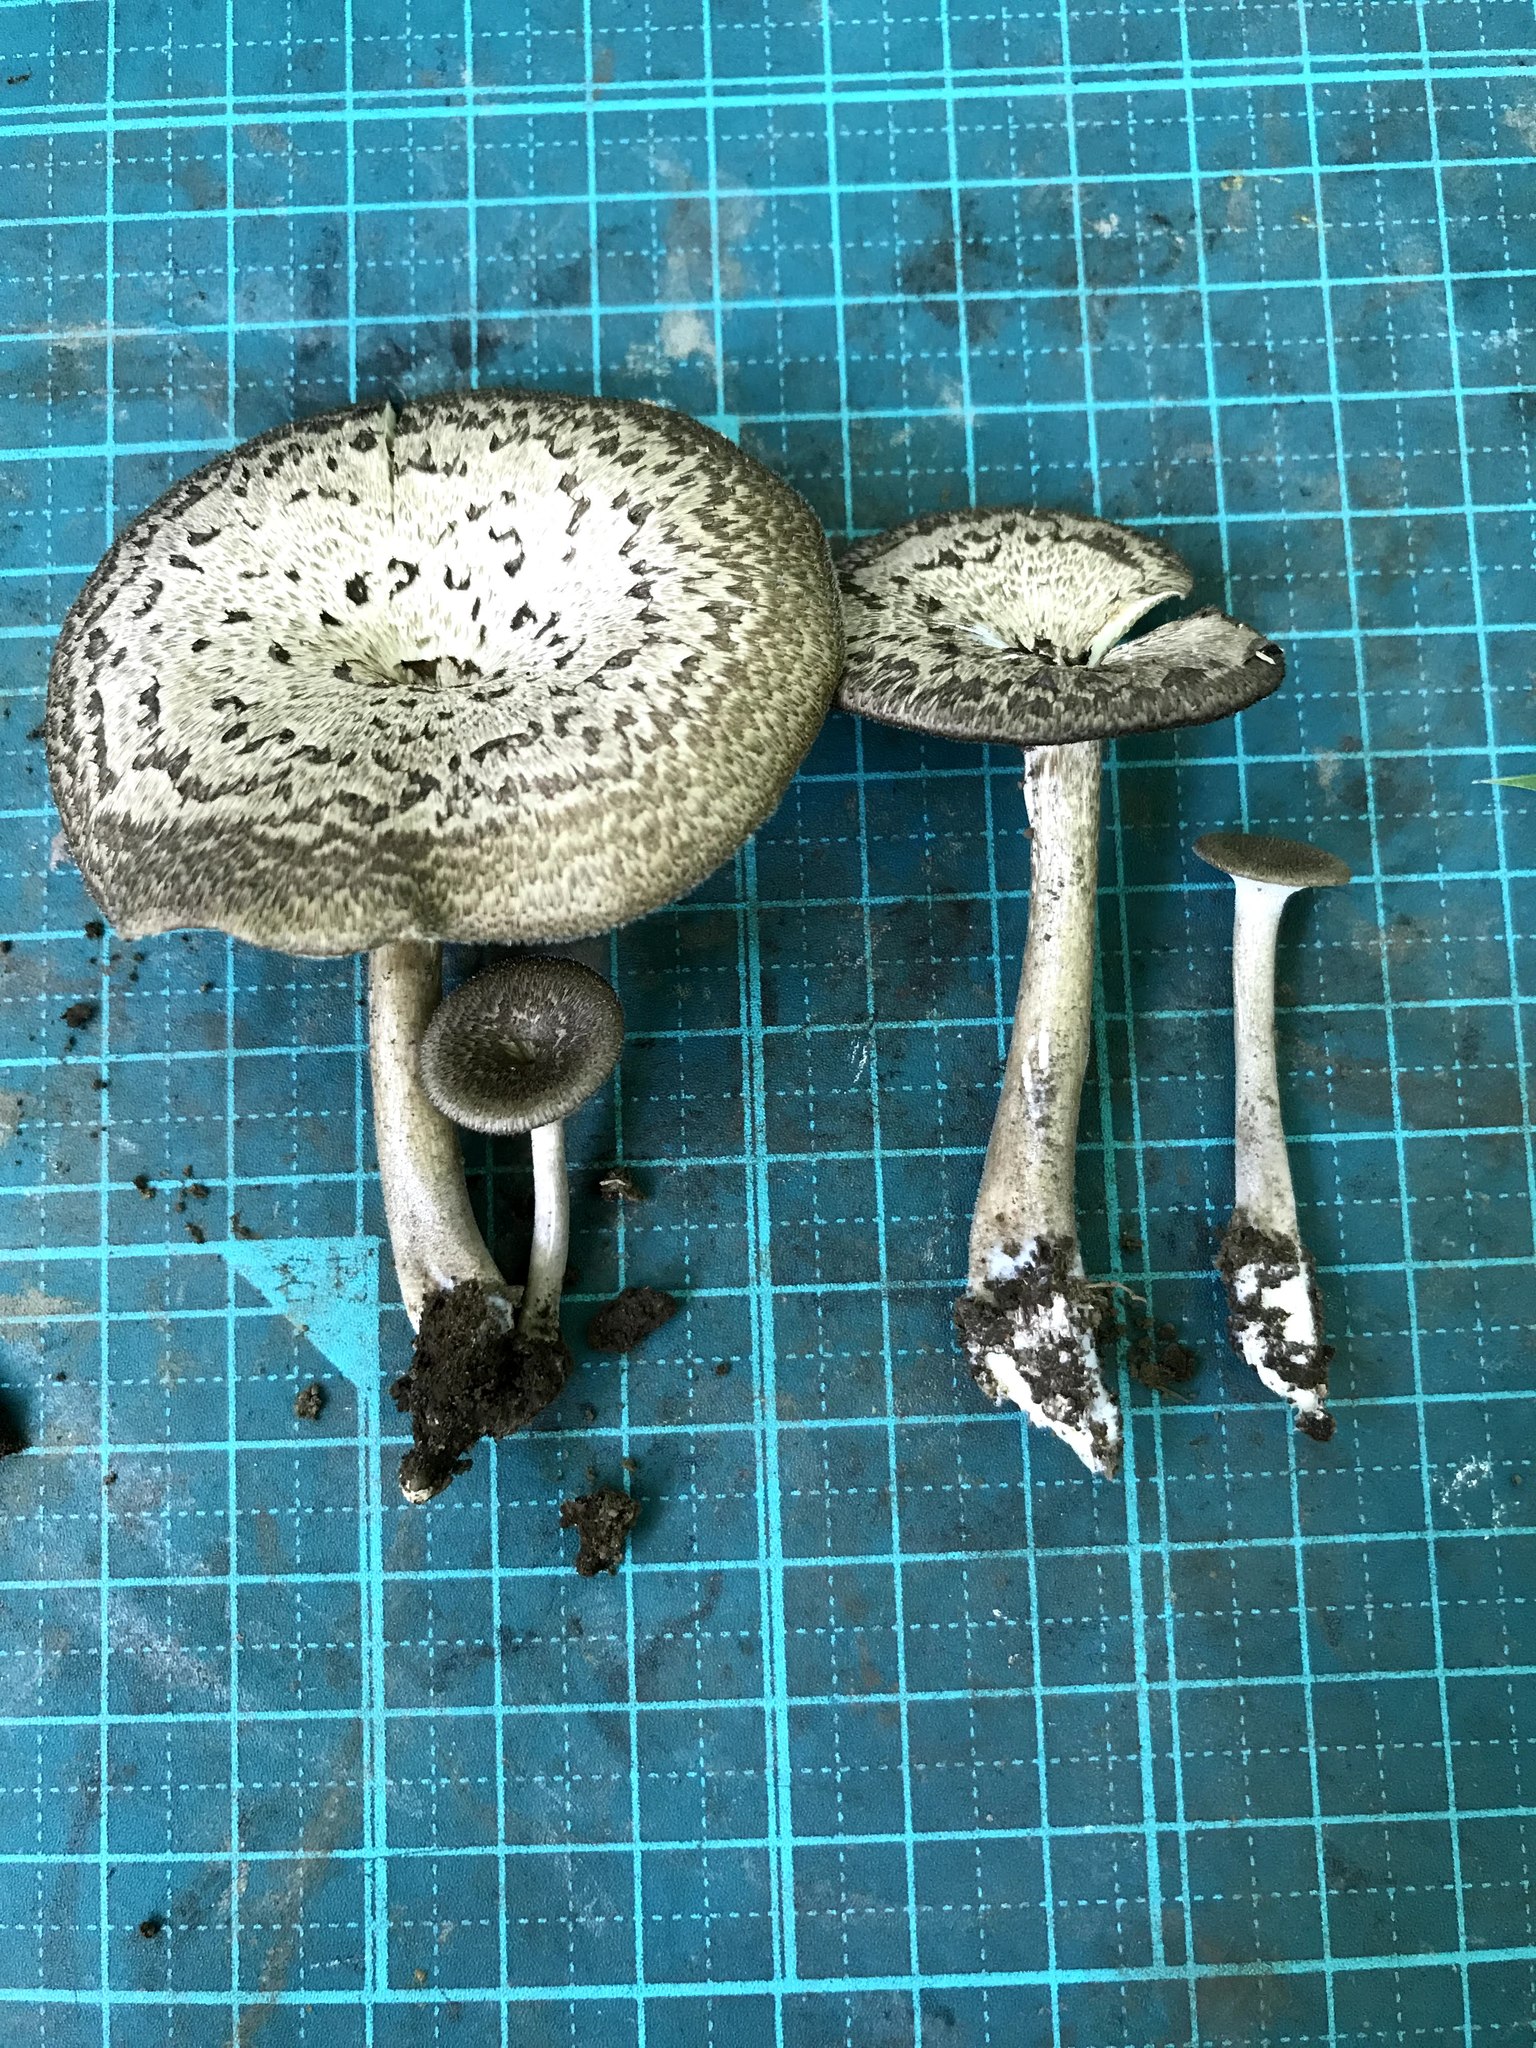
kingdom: Fungi
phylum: Basidiomycota
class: Agaricomycetes
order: Polyporales
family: Polyporaceae
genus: Lentinus
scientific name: Lentinus arcularius
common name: Spring polypore
